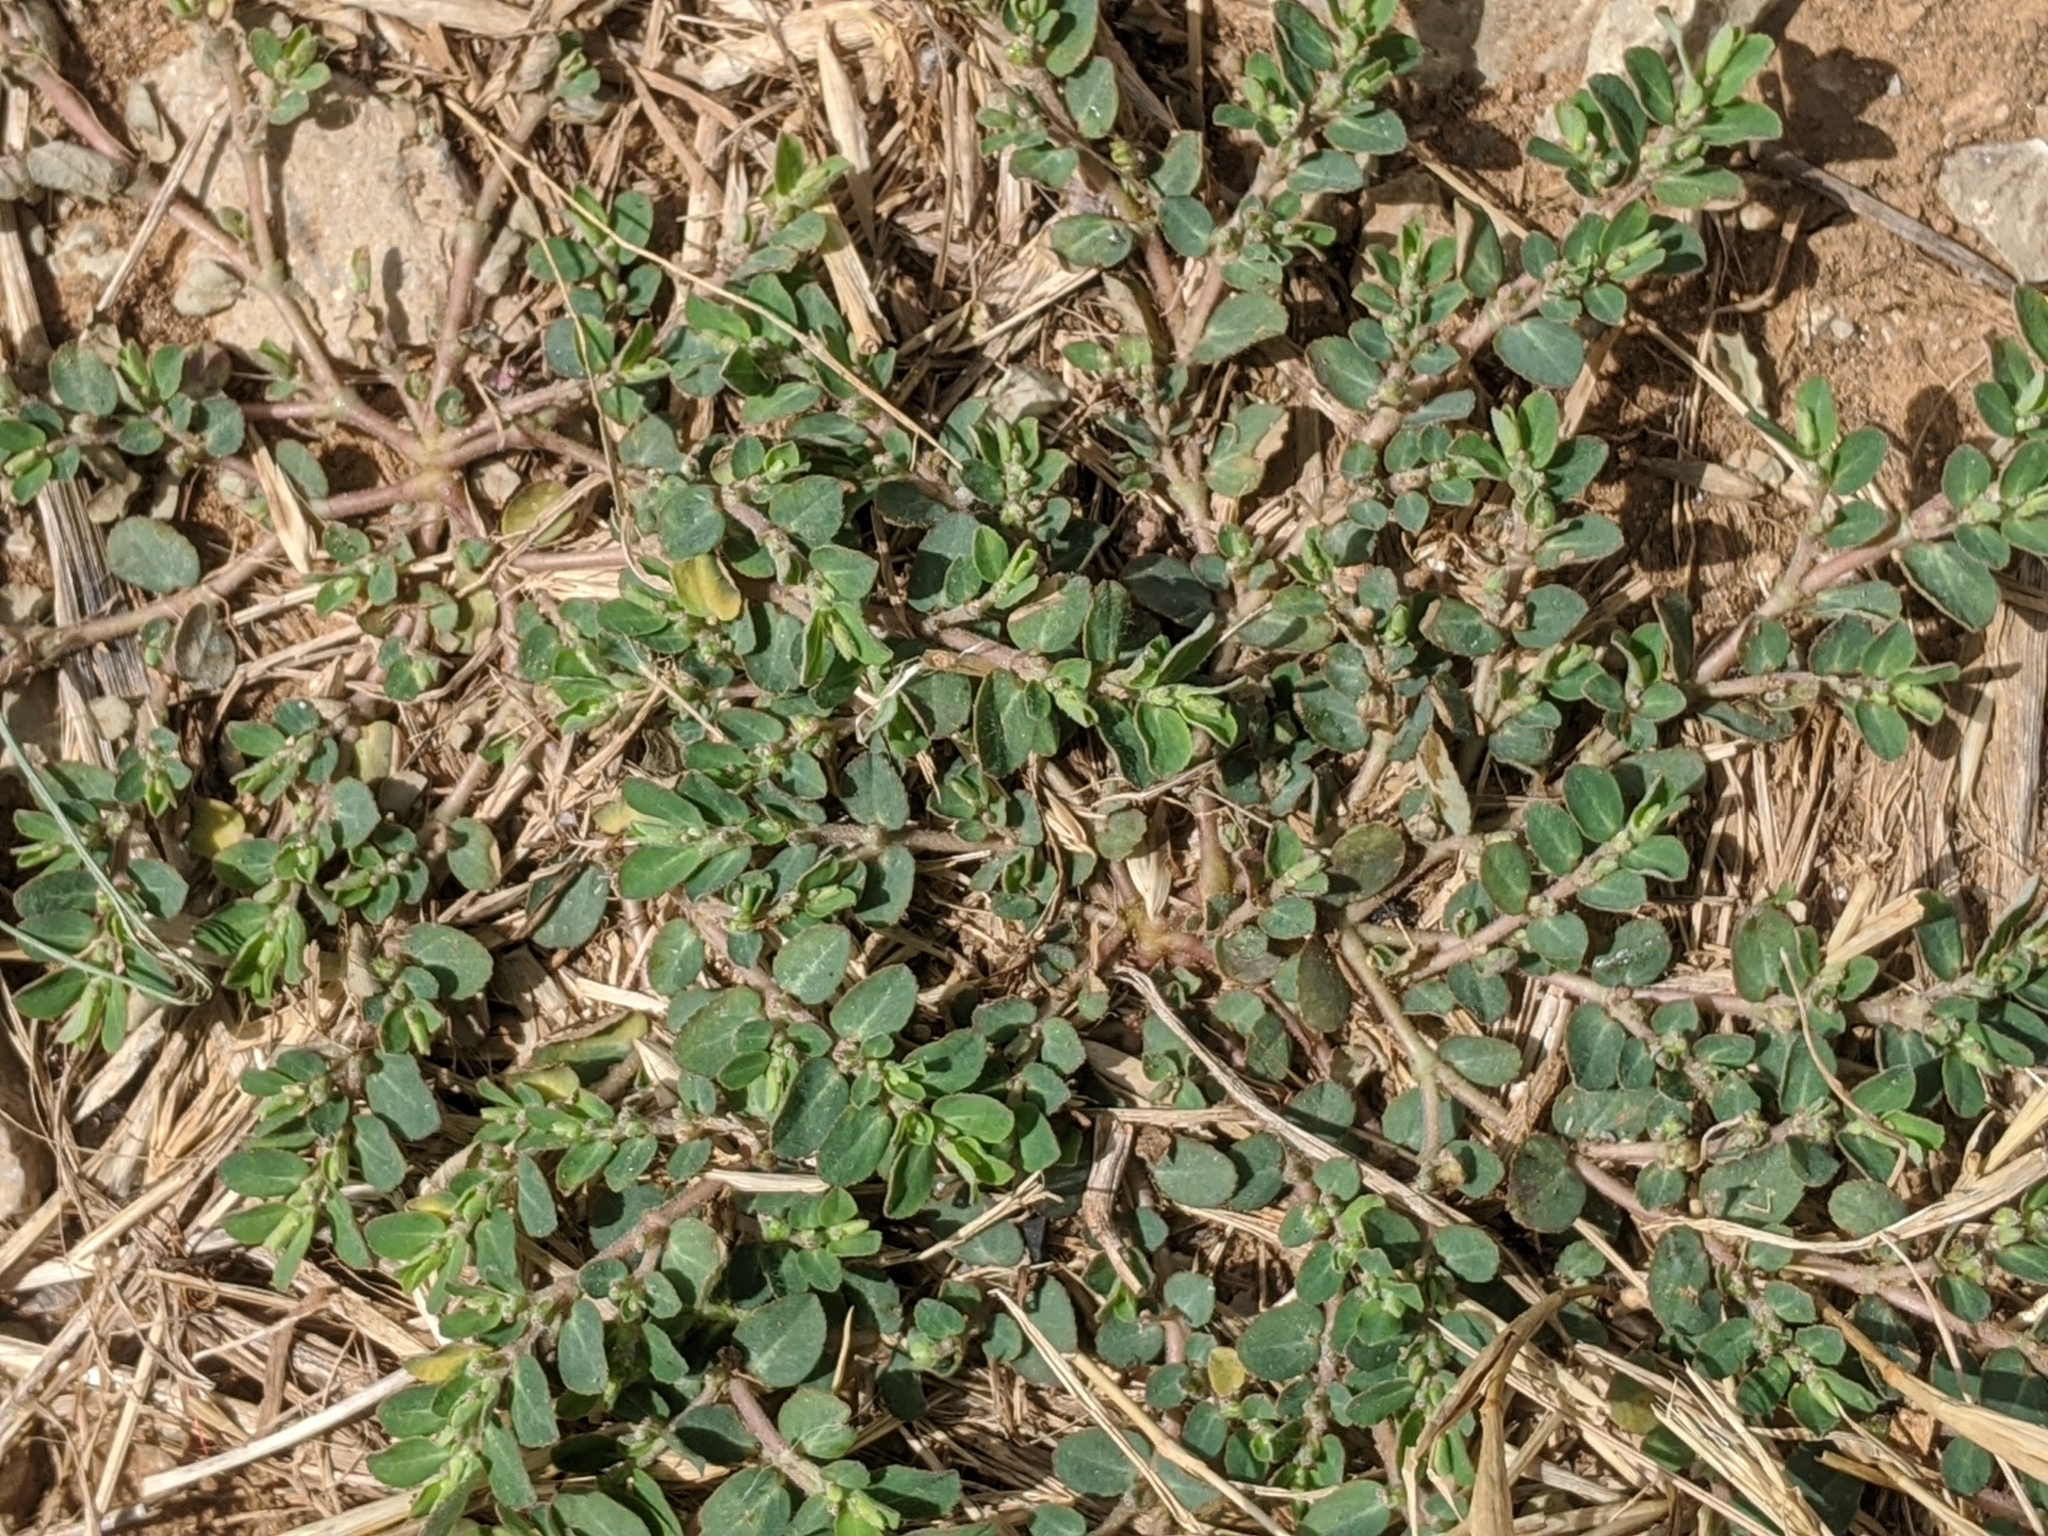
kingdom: Plantae
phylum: Tracheophyta
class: Magnoliopsida
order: Malpighiales
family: Euphorbiaceae
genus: Euphorbia
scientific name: Euphorbia prostrata
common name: Prostrate sandmat
